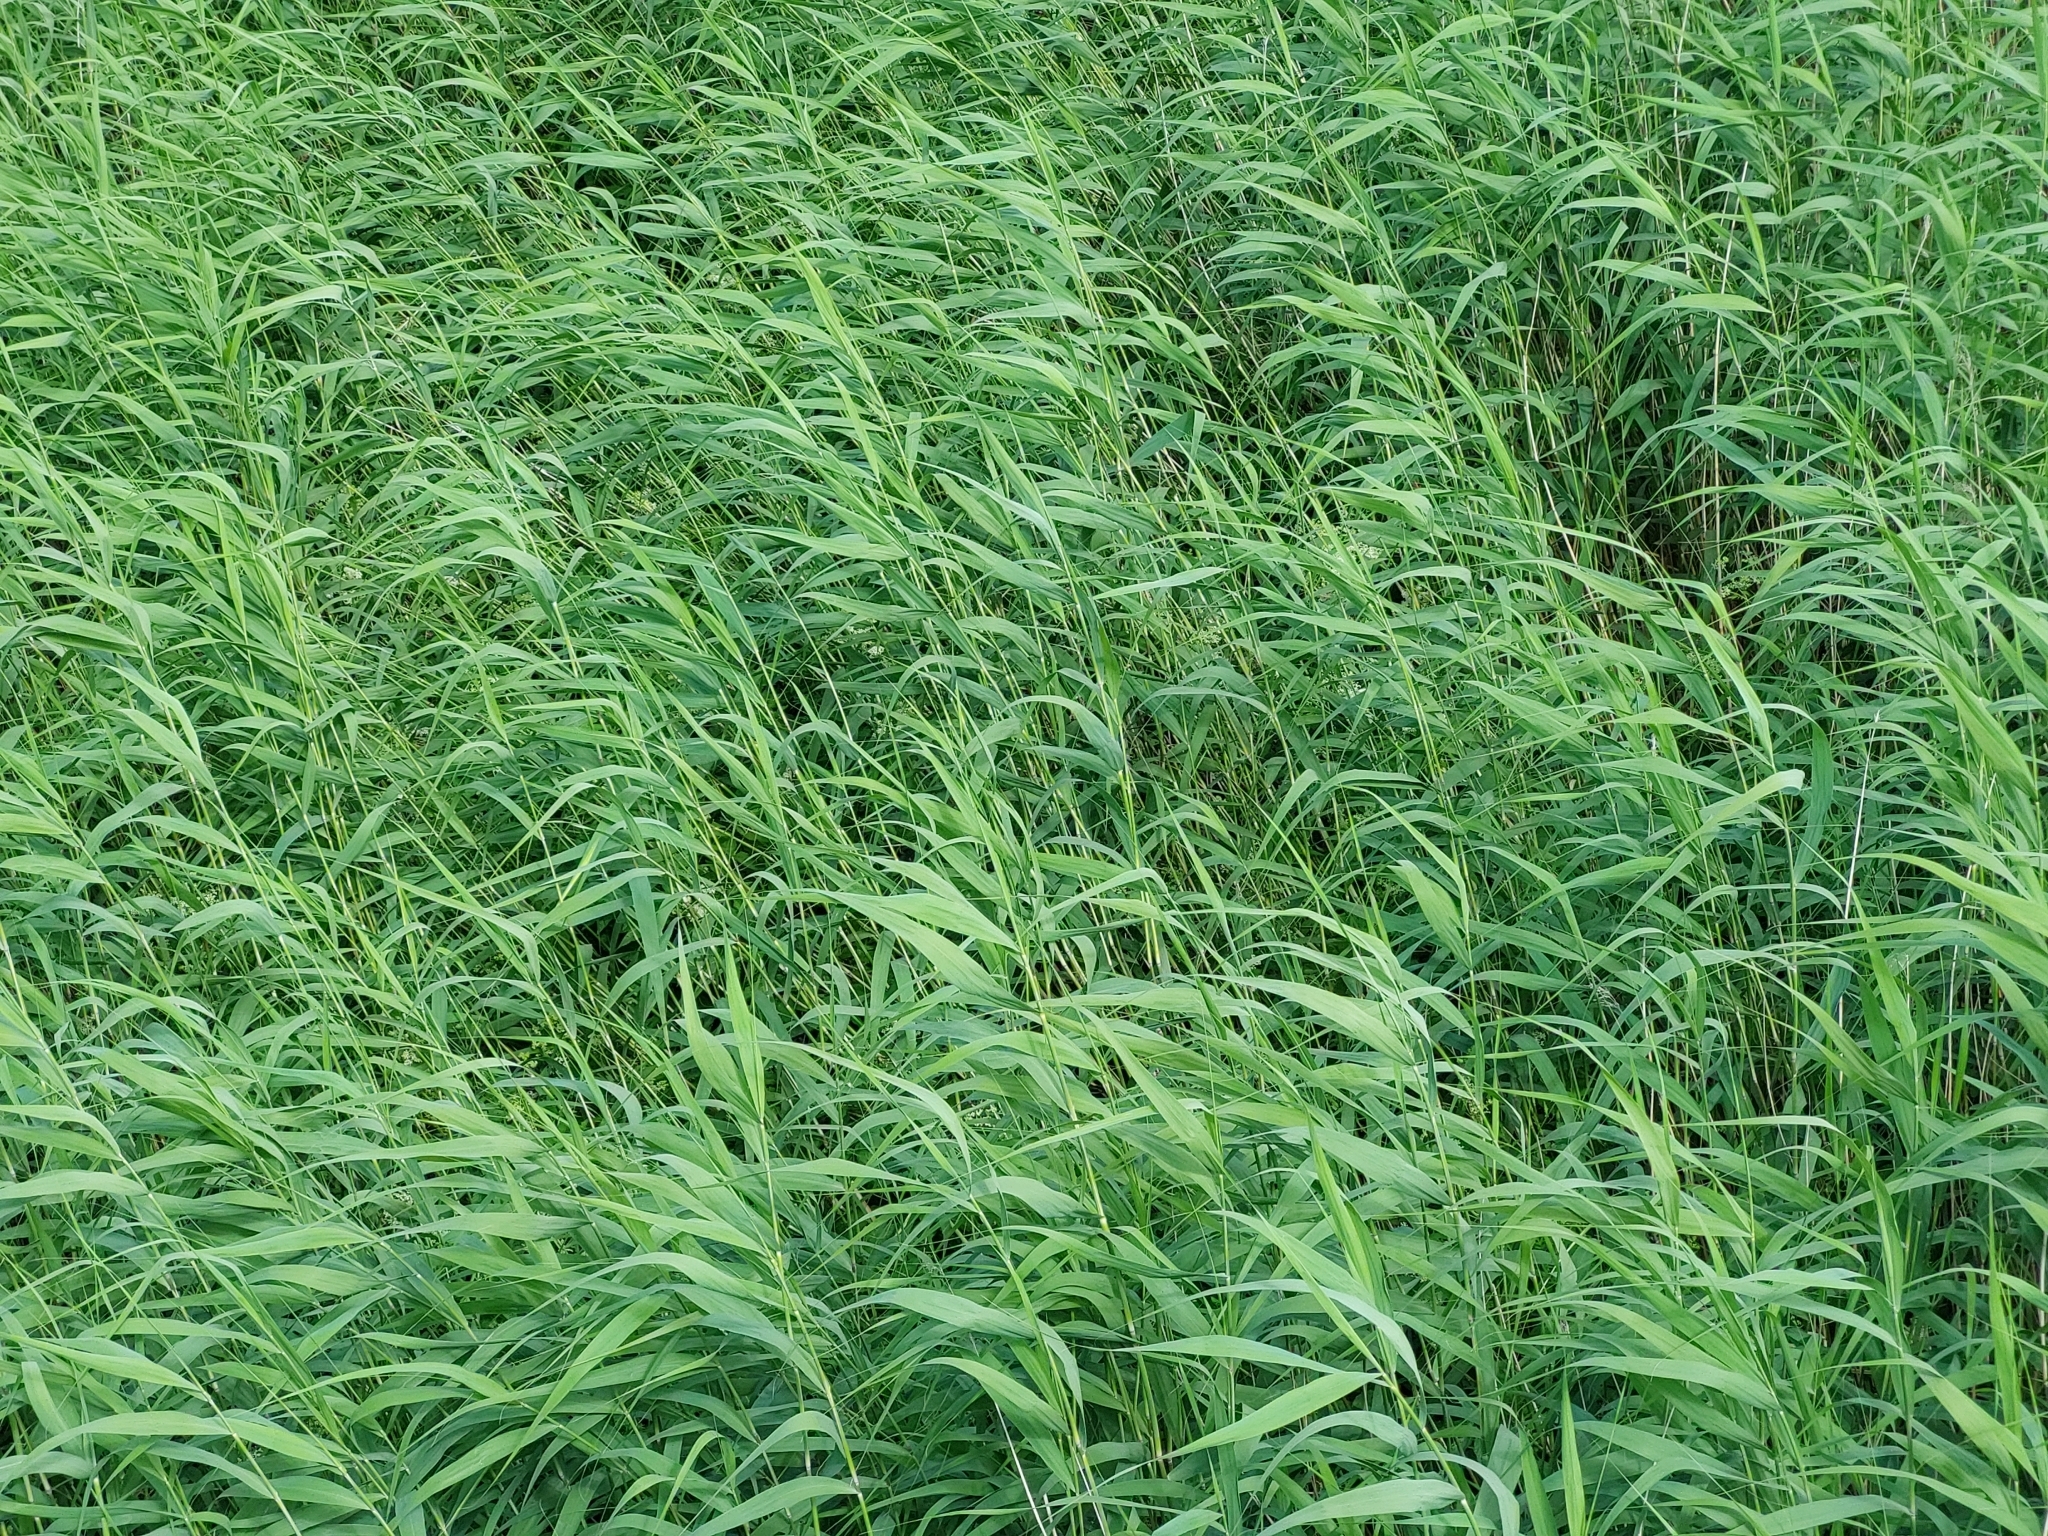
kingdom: Plantae
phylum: Tracheophyta
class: Liliopsida
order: Poales
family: Poaceae
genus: Phragmites
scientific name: Phragmites australis
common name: Common reed
